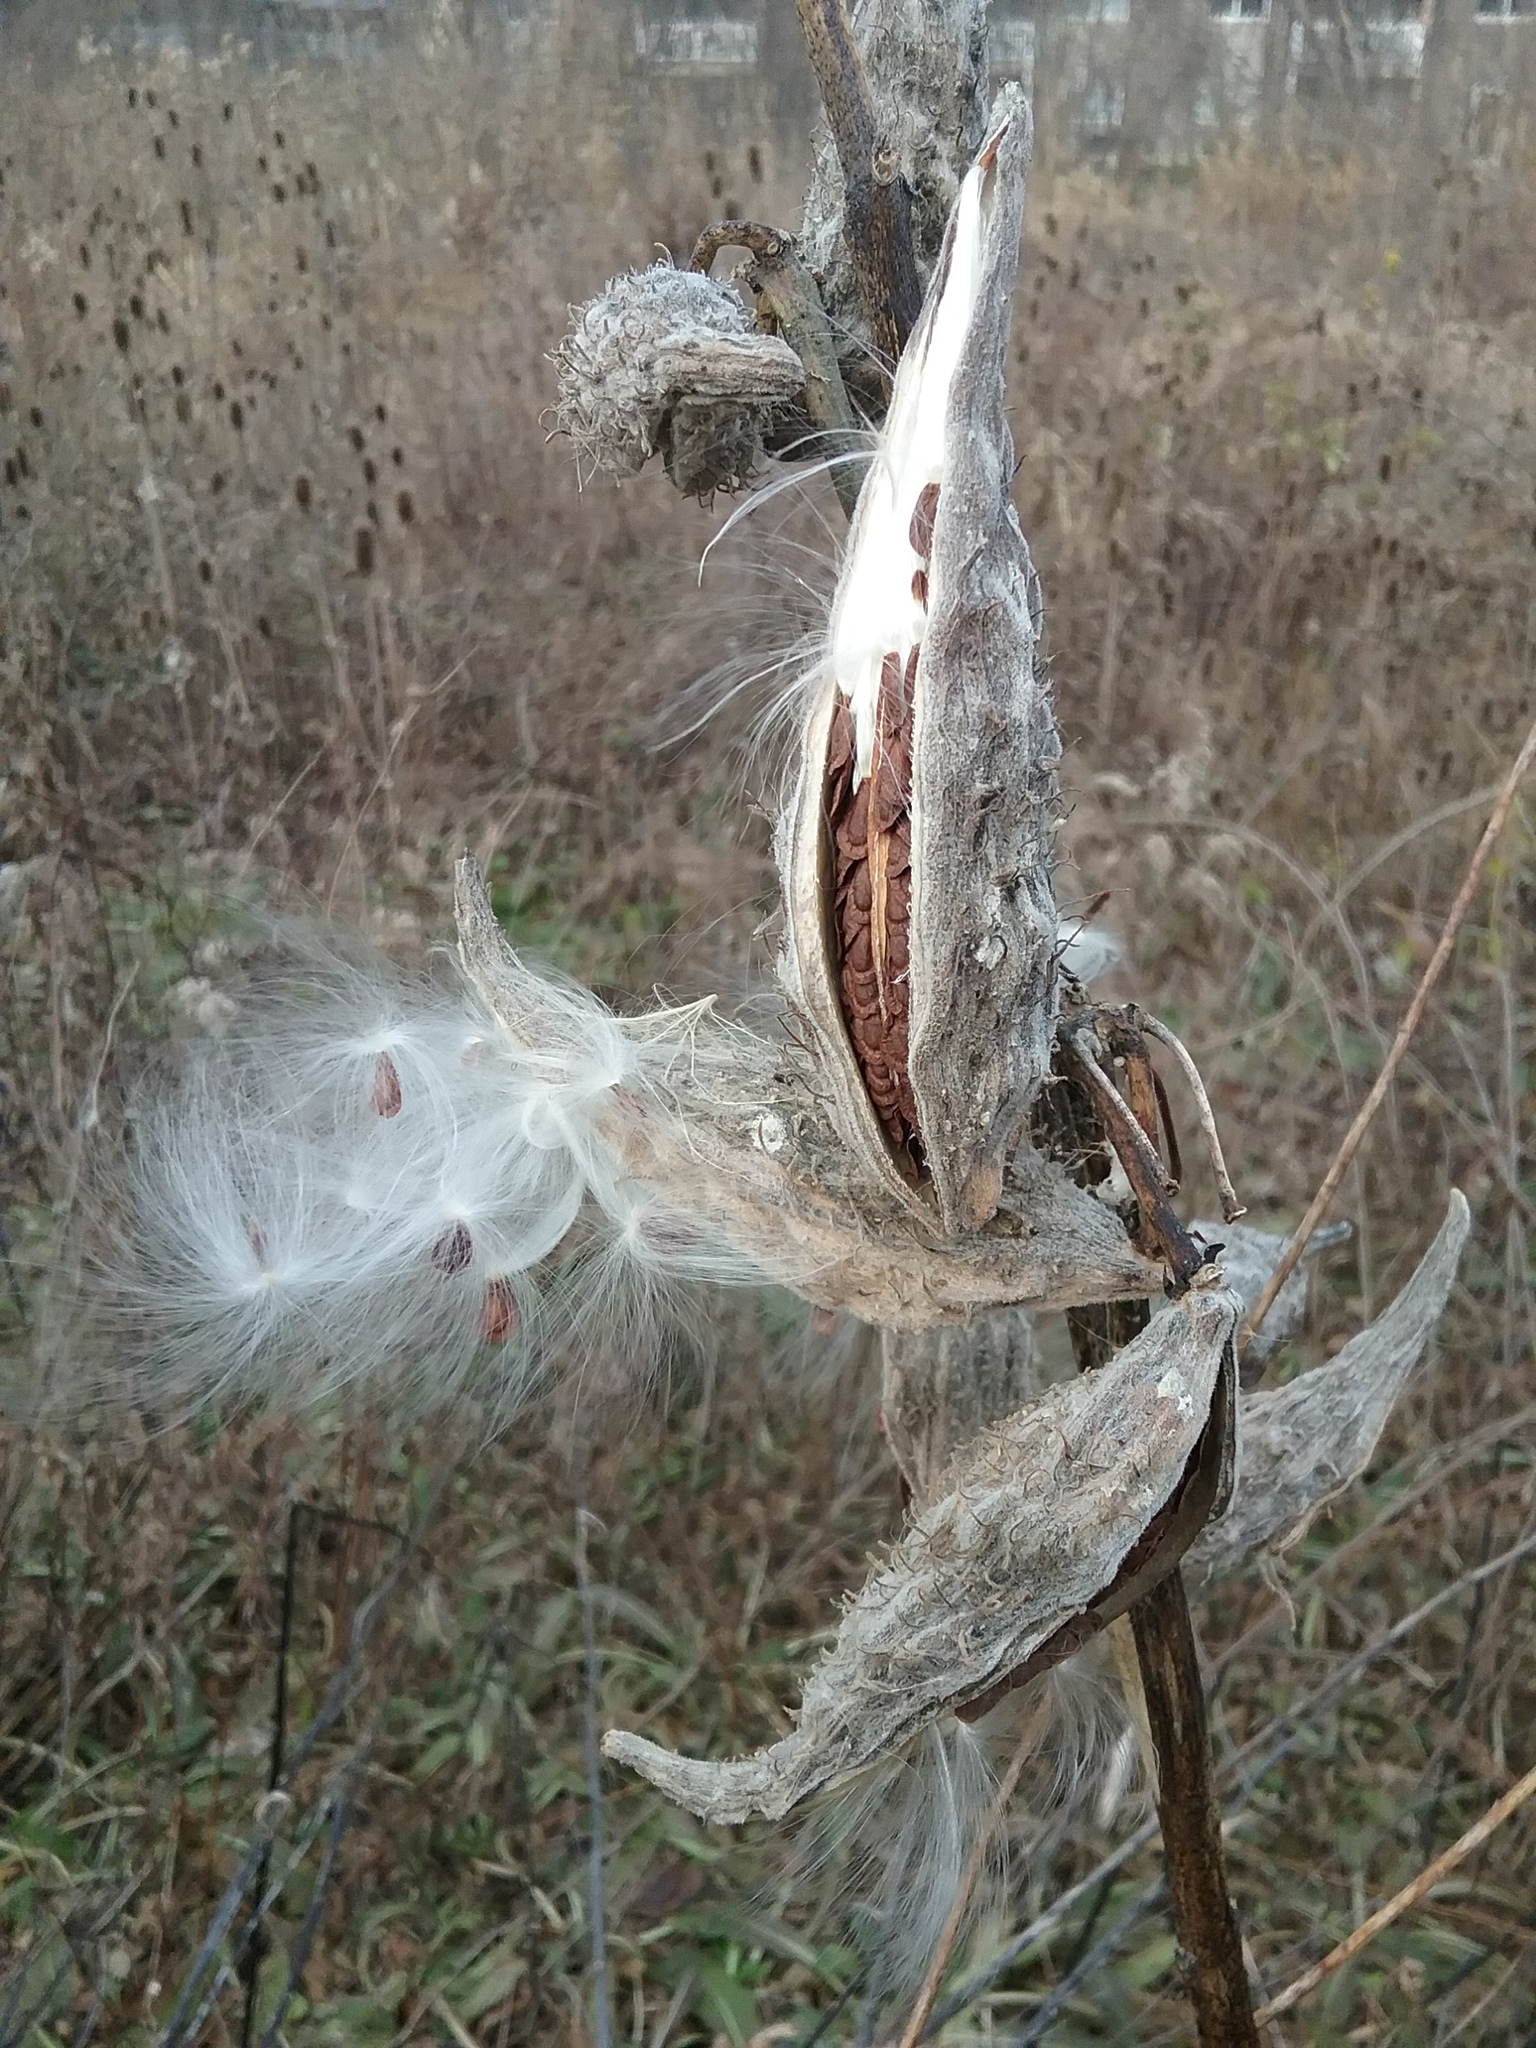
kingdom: Plantae
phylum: Tracheophyta
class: Magnoliopsida
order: Gentianales
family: Apocynaceae
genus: Asclepias
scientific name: Asclepias syriaca
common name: Common milkweed
